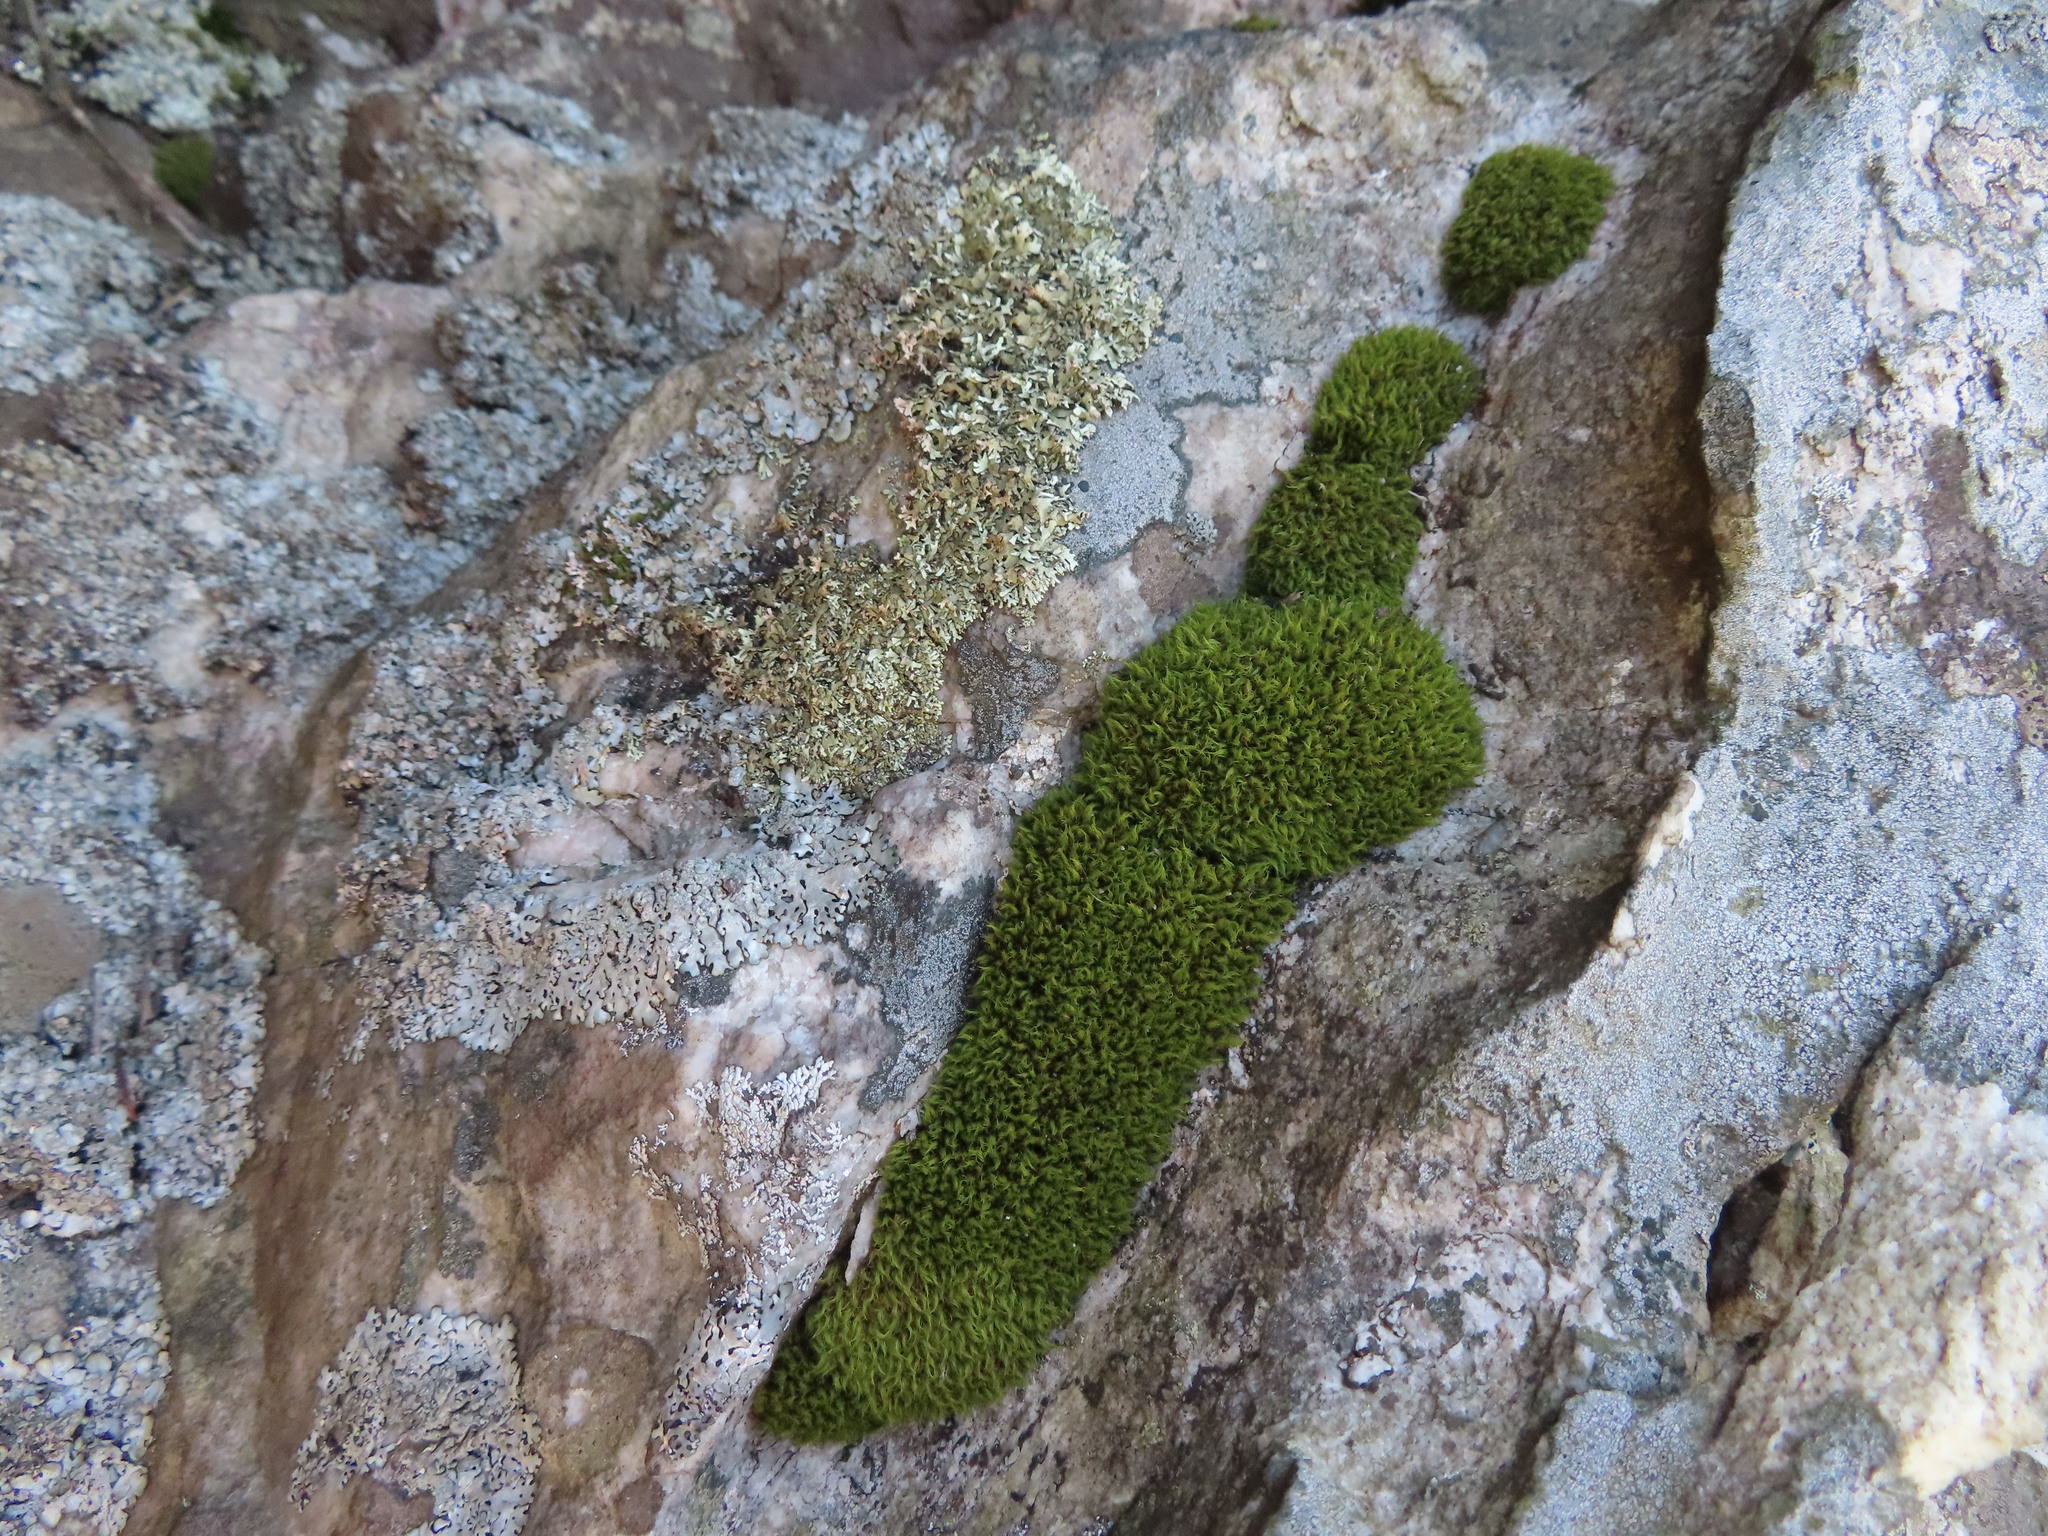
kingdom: Plantae
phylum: Bryophyta
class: Bryopsida
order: Dicranales
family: Dicranaceae
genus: Leucoloma
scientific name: Leucoloma sprengelianum
